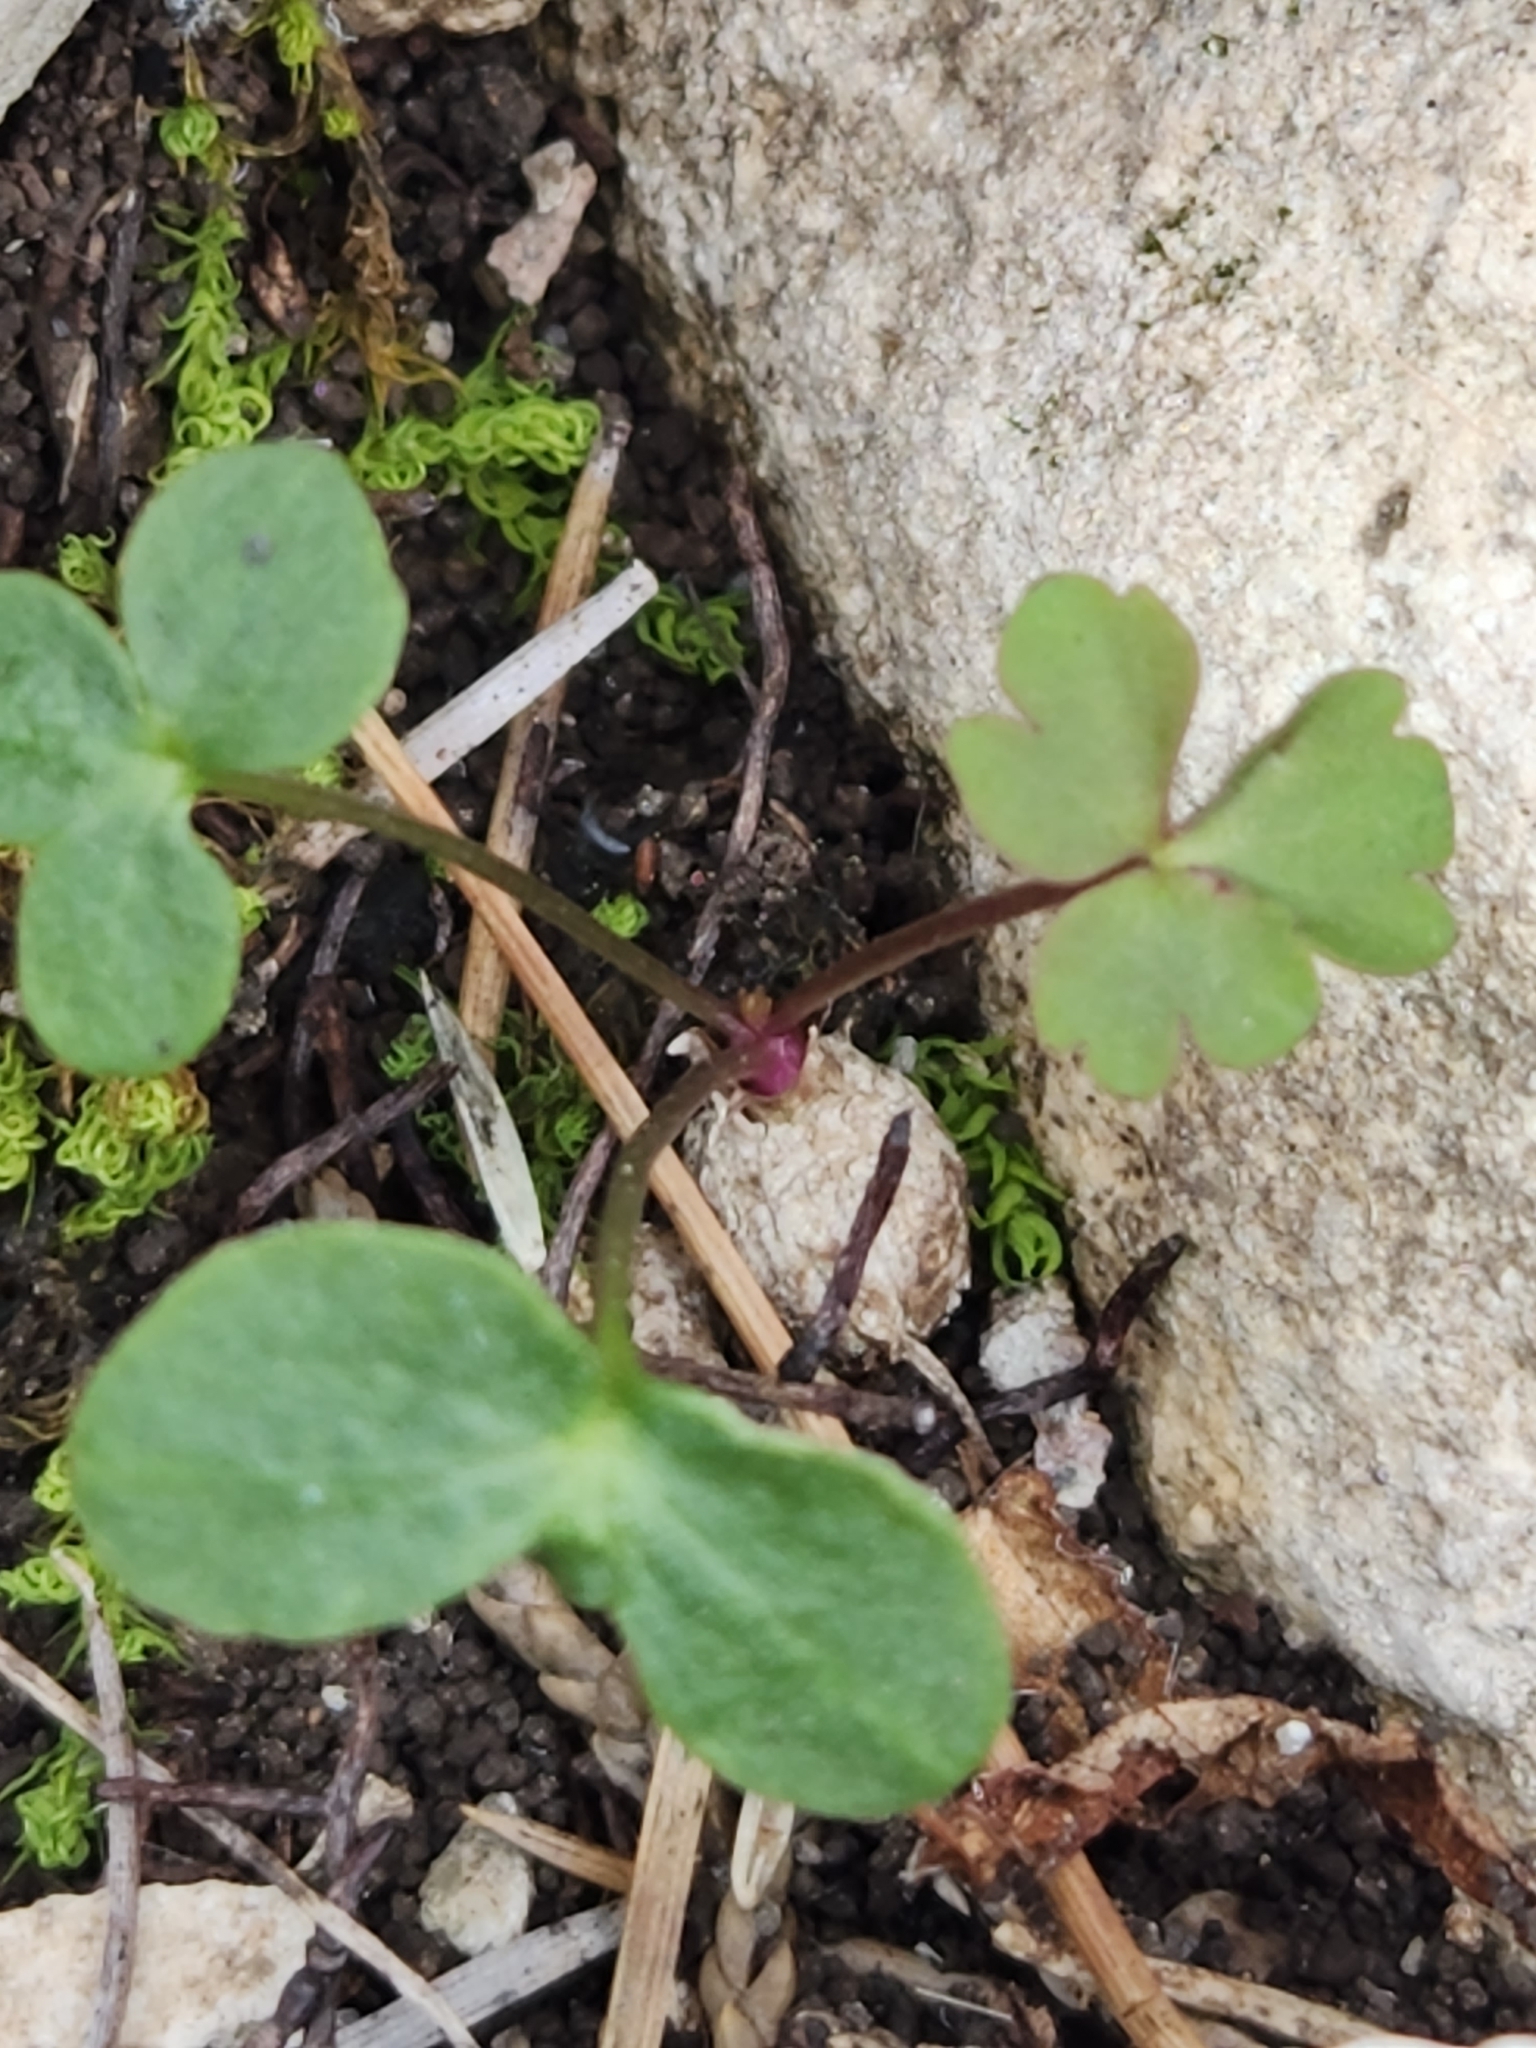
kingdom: Plantae
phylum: Tracheophyta
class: Magnoliopsida
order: Ranunculales
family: Ranunculaceae
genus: Anemone
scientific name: Anemone edwardsiana
